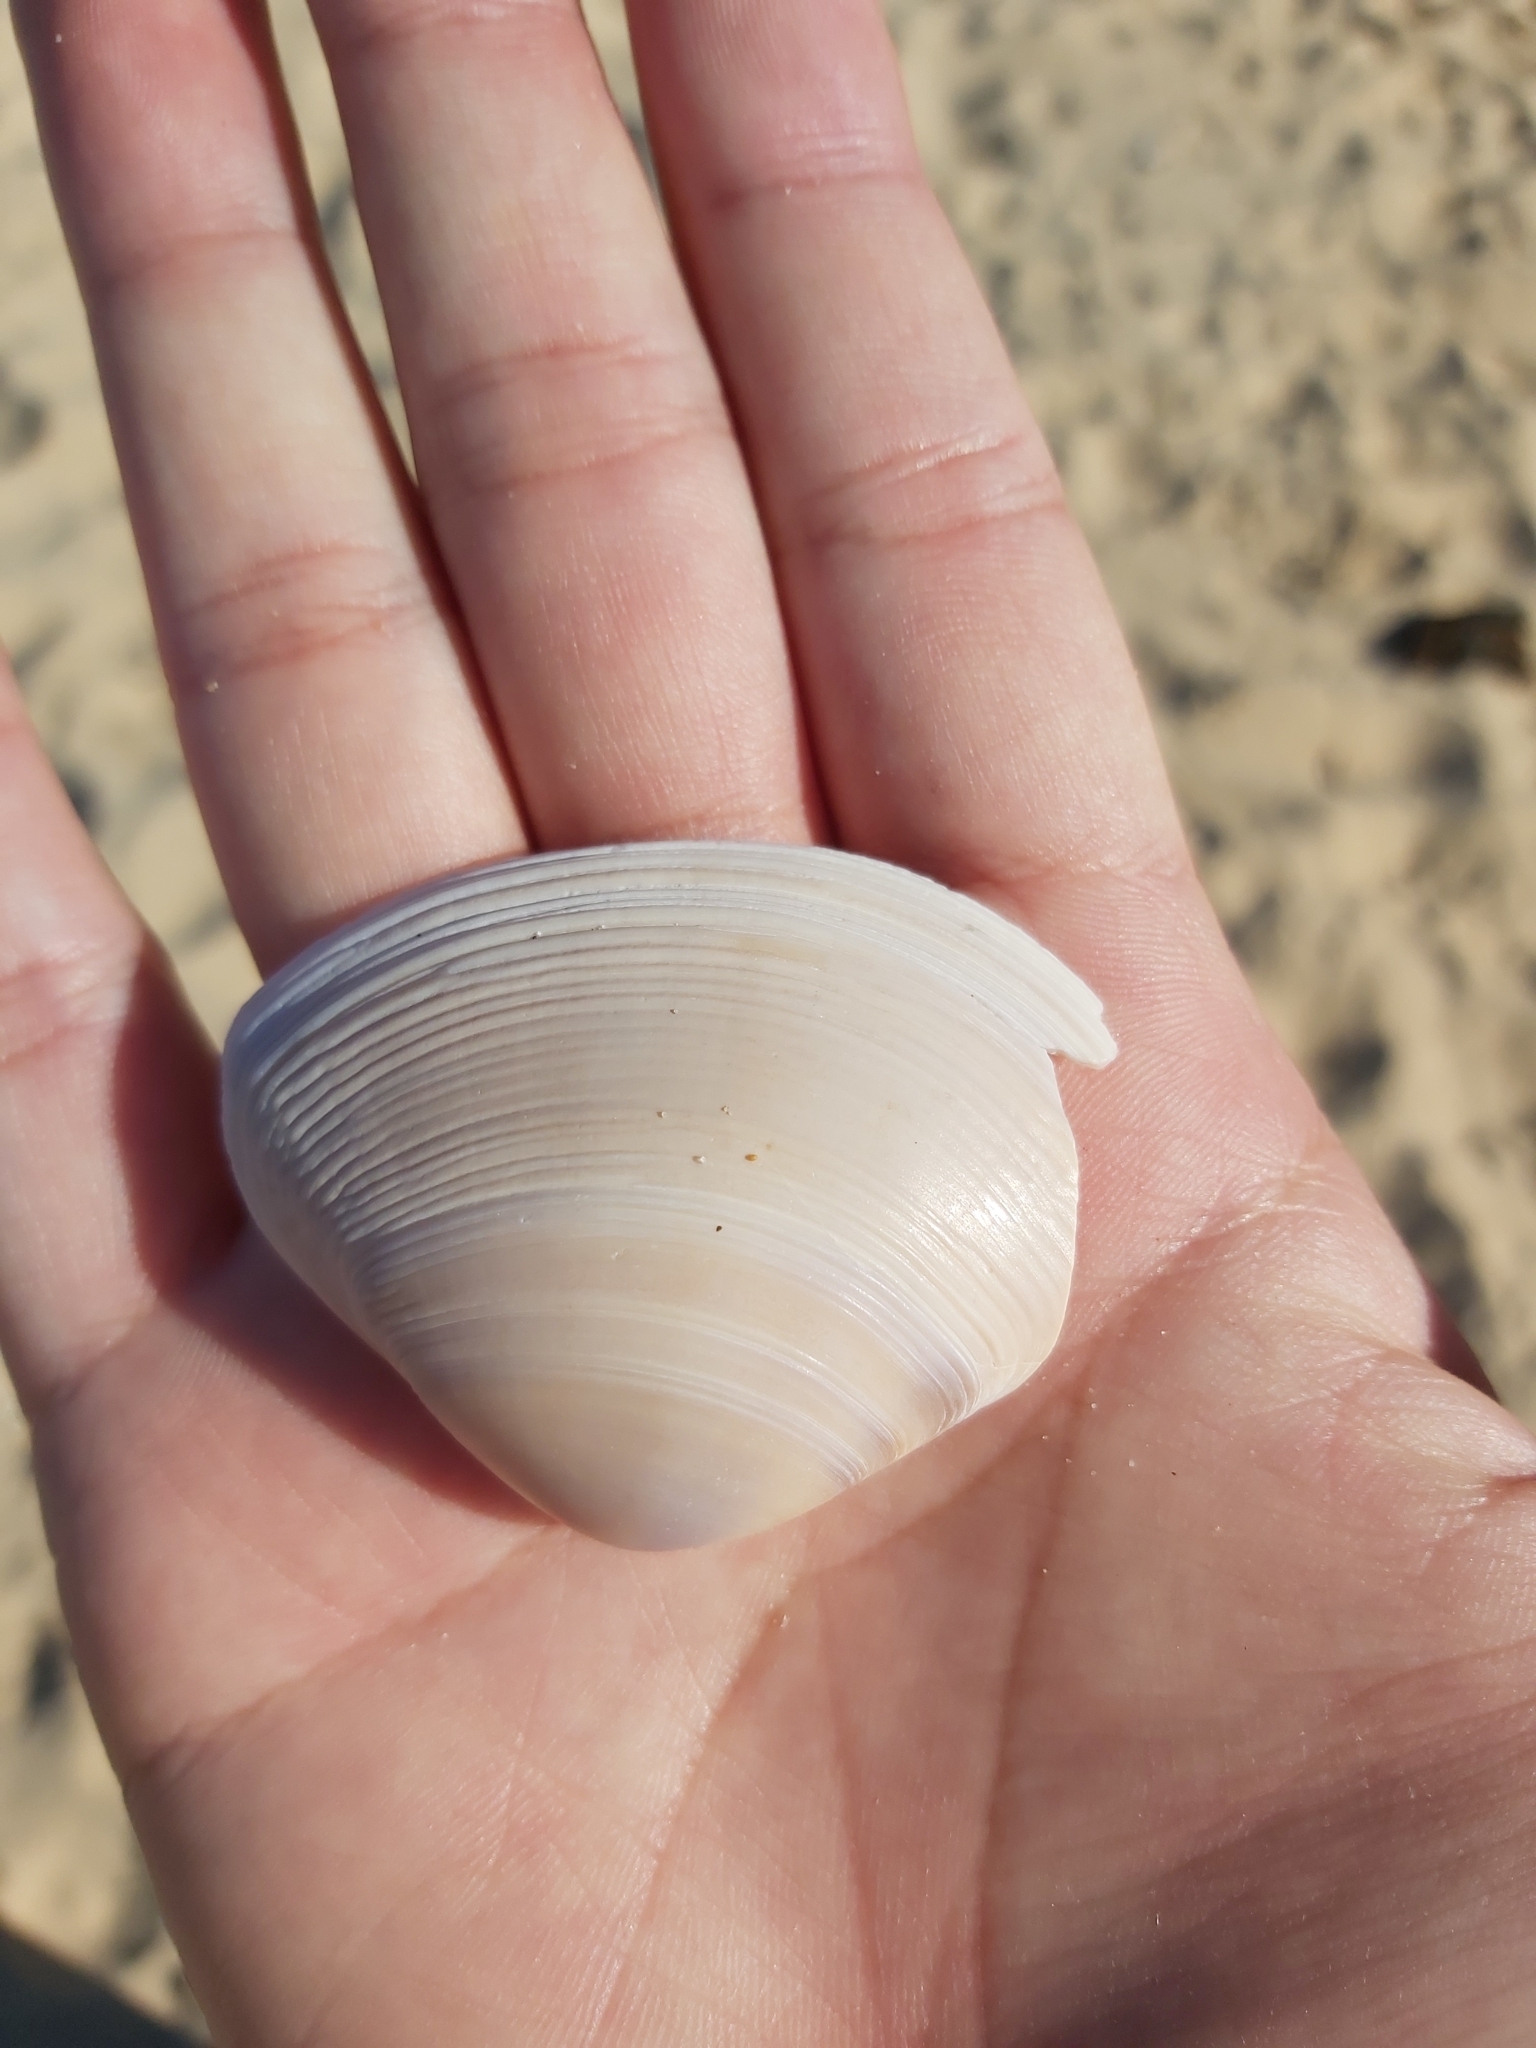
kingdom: Animalia
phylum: Mollusca
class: Bivalvia
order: Venerida
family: Mactridae
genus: Austromactra
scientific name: Austromactra rufescens
